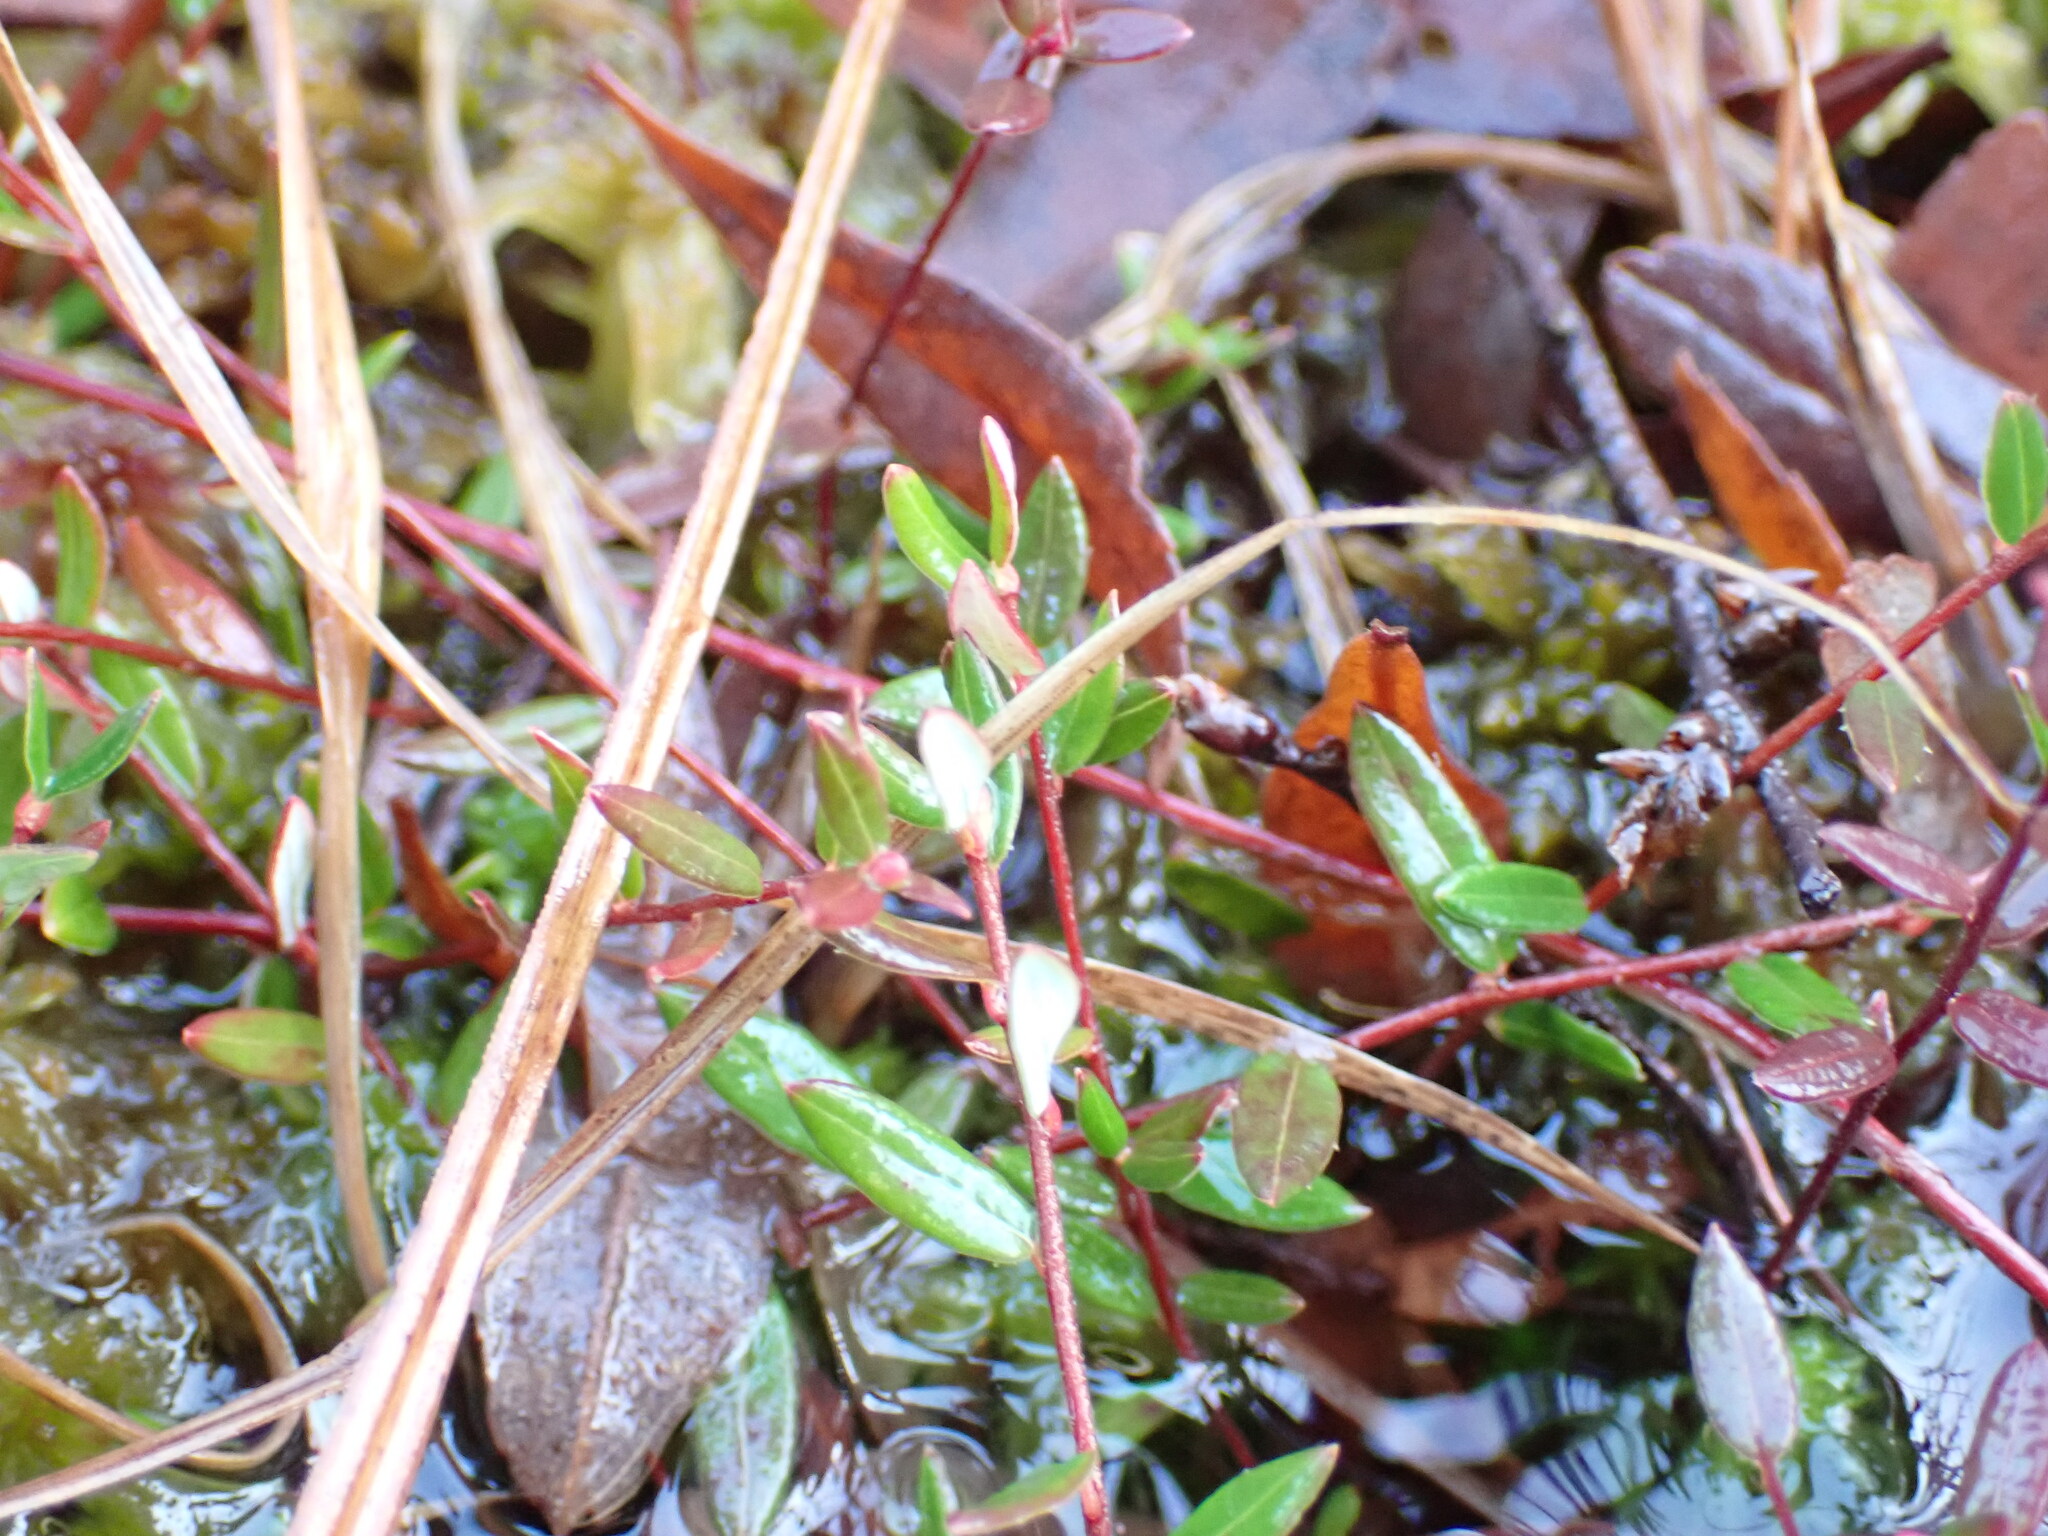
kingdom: Plantae
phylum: Tracheophyta
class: Magnoliopsida
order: Ericales
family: Ericaceae
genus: Vaccinium
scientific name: Vaccinium oxycoccos
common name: Cranberry
